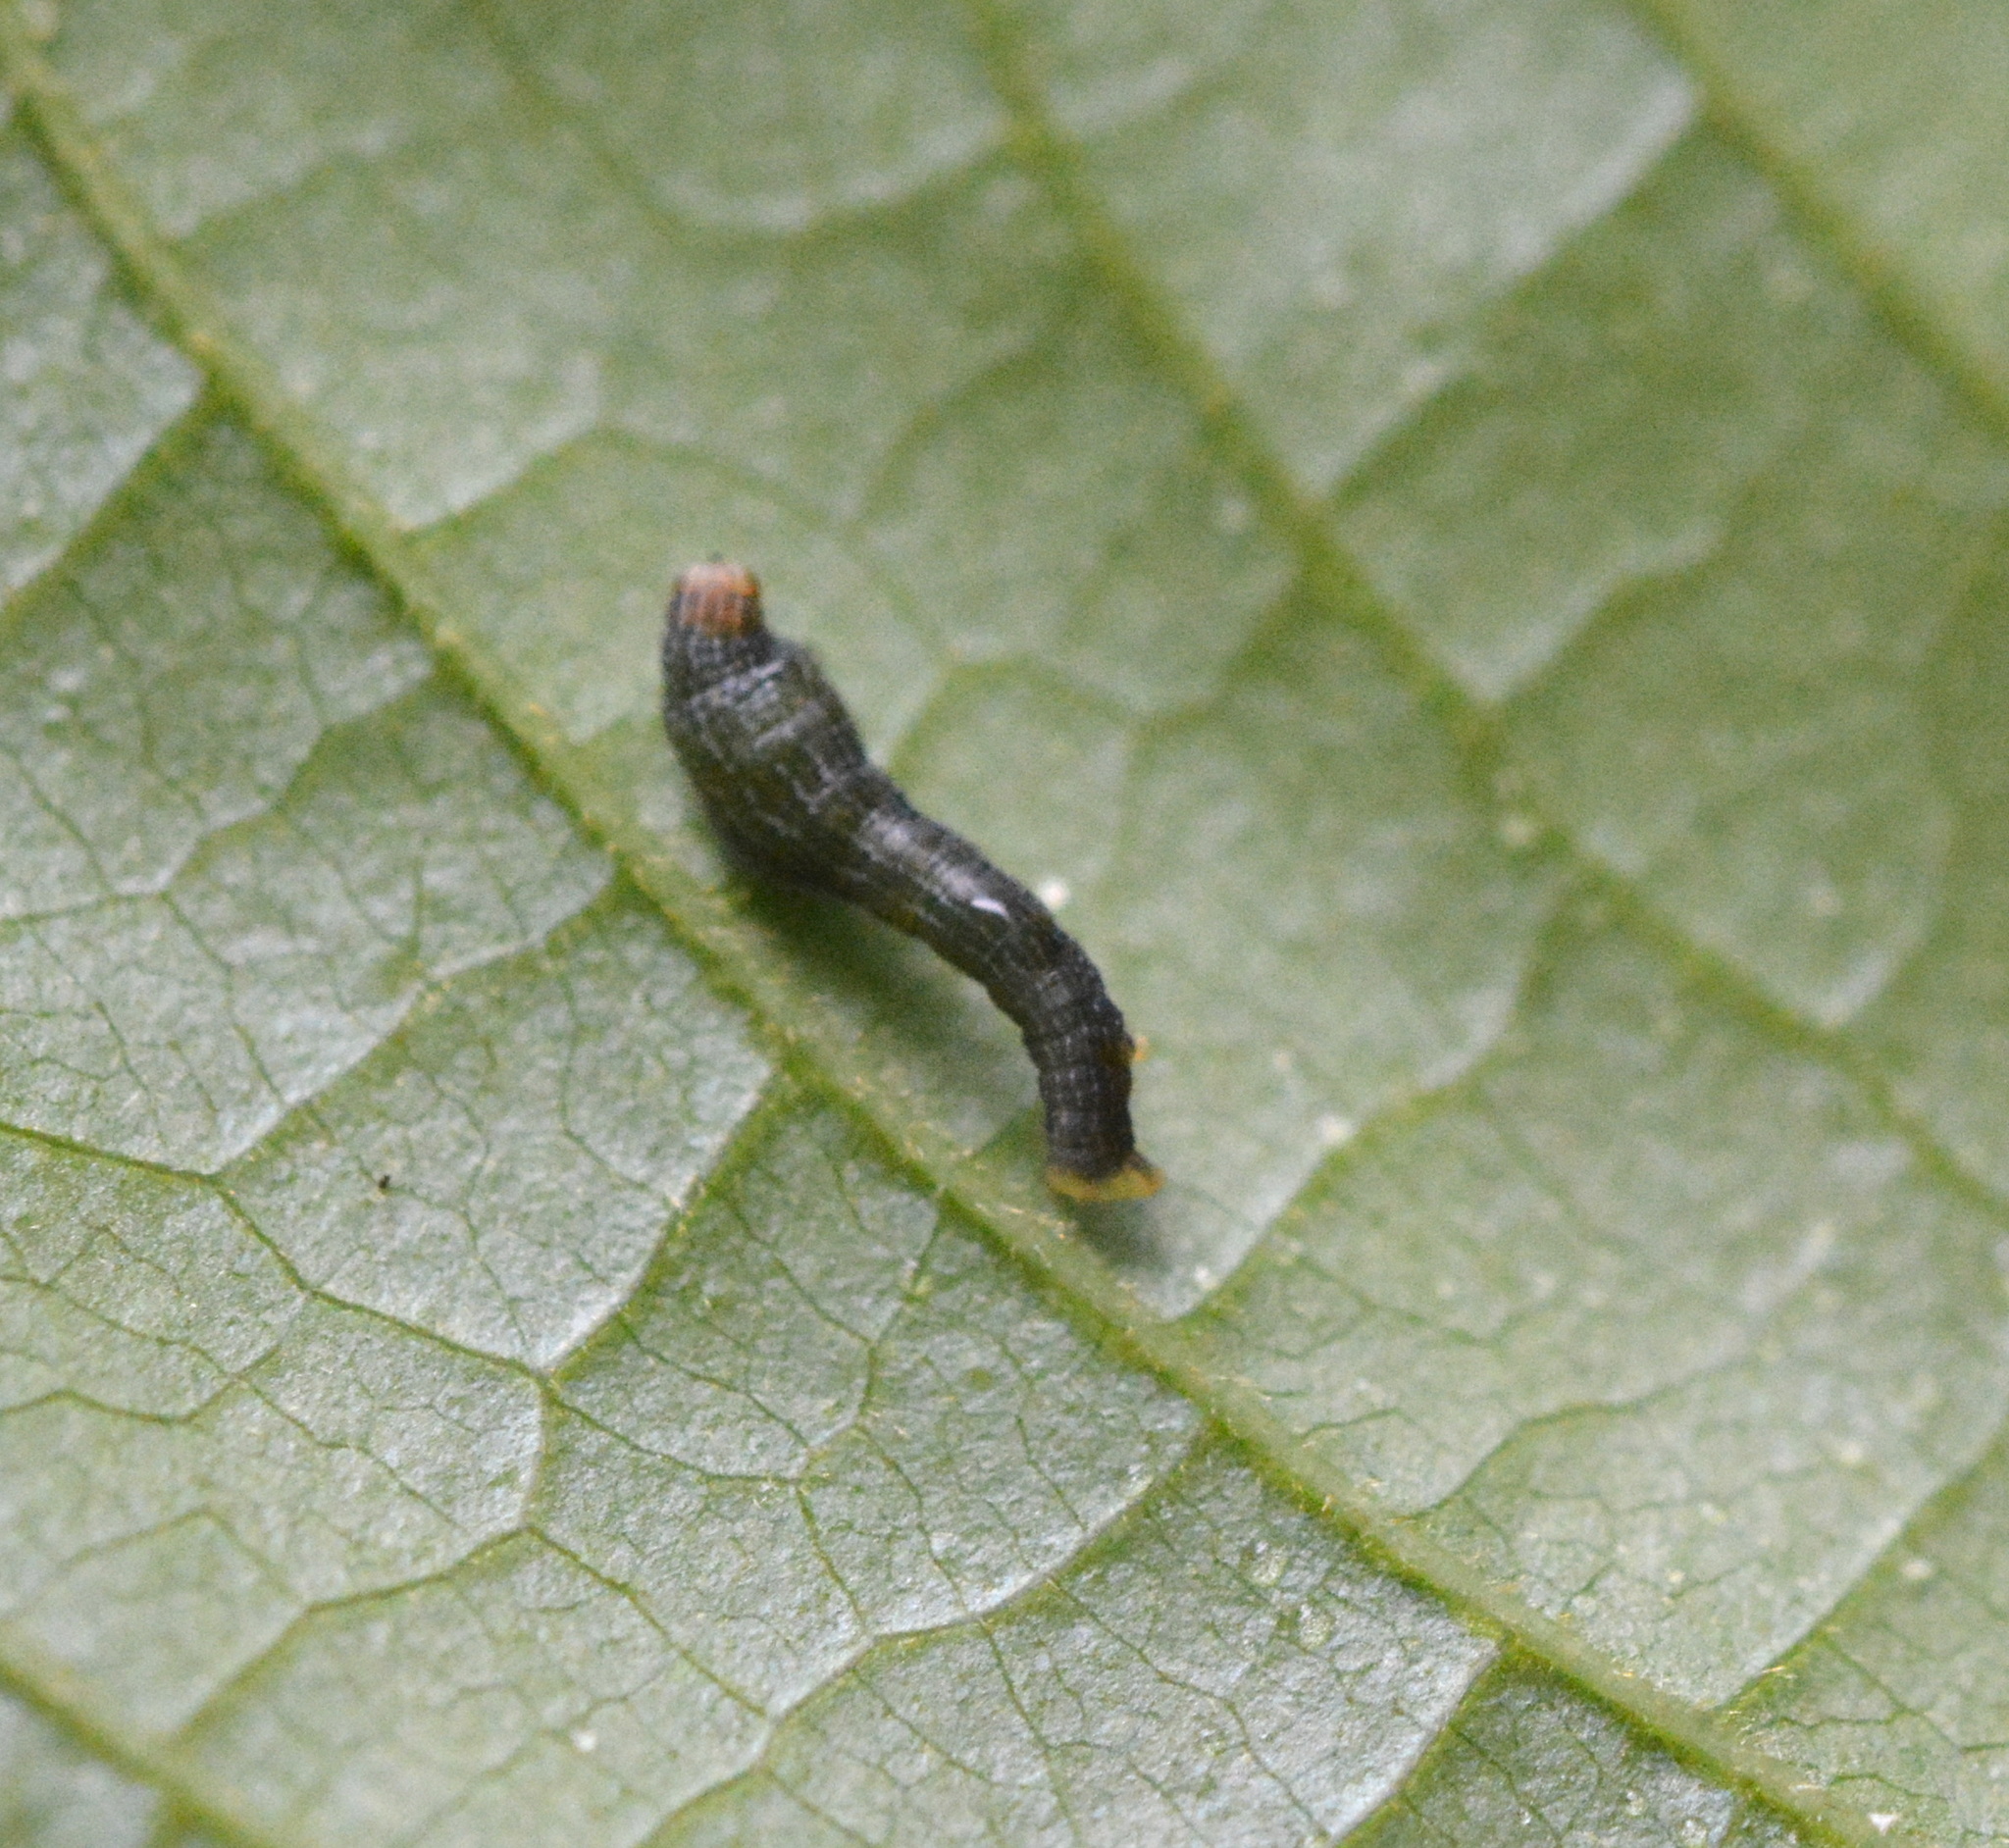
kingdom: Animalia
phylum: Arthropoda
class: Insecta
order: Lepidoptera
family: Geometridae
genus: Epimecis
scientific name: Epimecis hortaria
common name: Tulip-tree beauty
